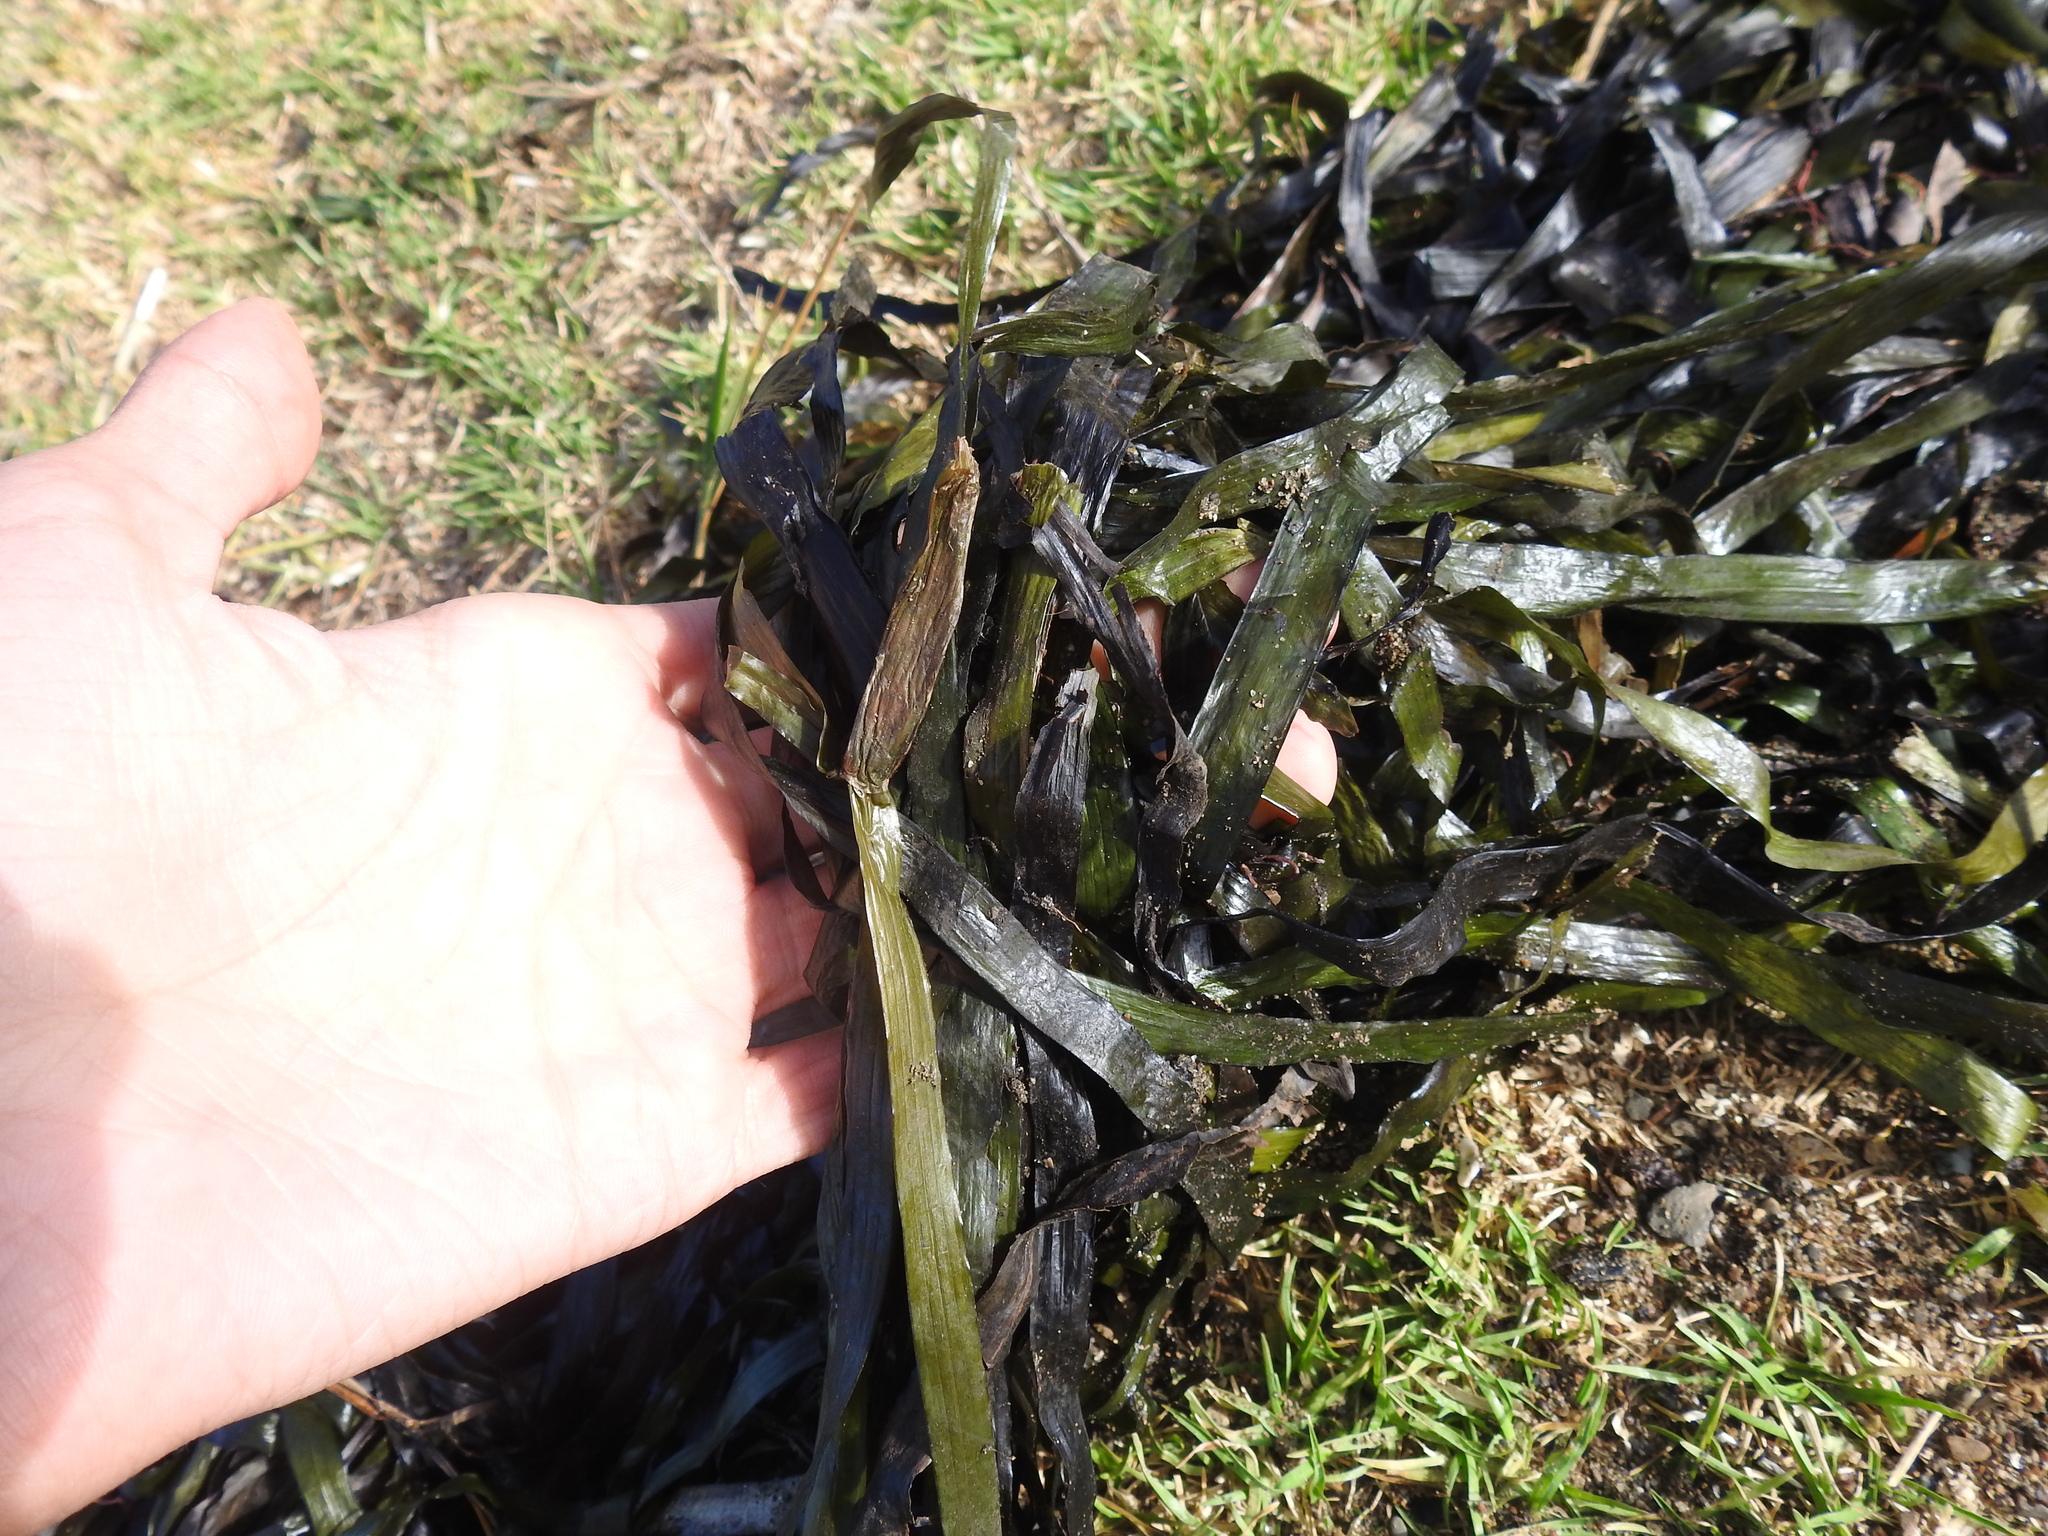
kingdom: Plantae
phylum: Tracheophyta
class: Liliopsida
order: Alismatales
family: Zosteraceae
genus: Zostera
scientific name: Zostera marina
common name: Eelgrass
